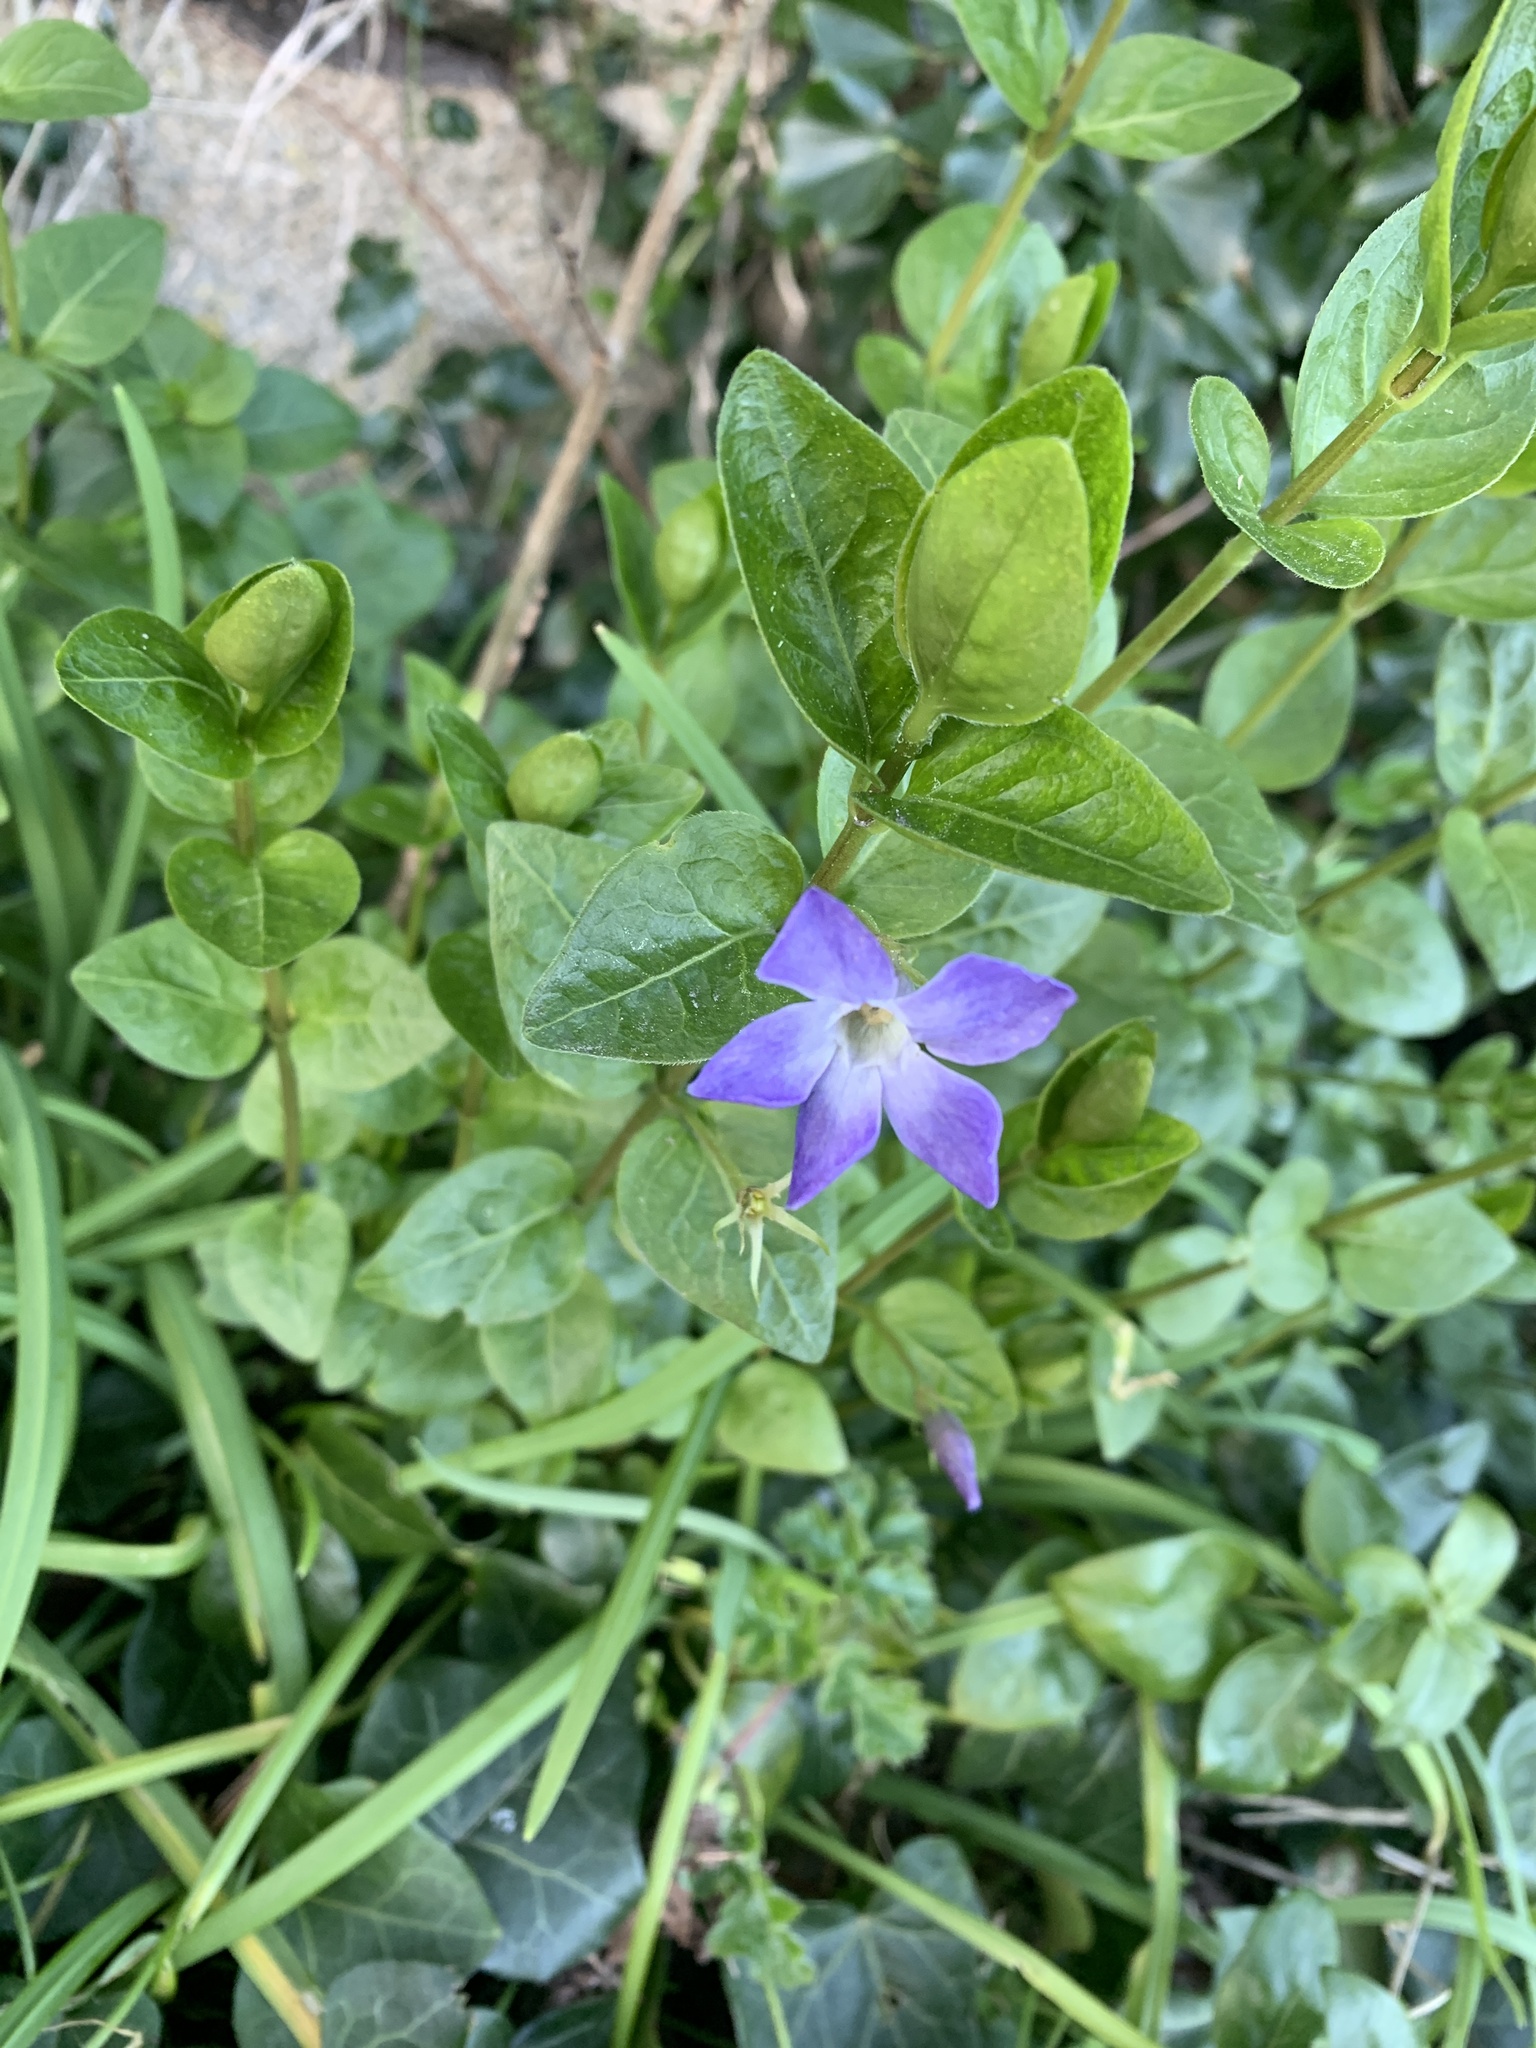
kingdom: Plantae
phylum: Tracheophyta
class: Magnoliopsida
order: Gentianales
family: Apocynaceae
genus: Vinca
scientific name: Vinca major
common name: Greater periwinkle
